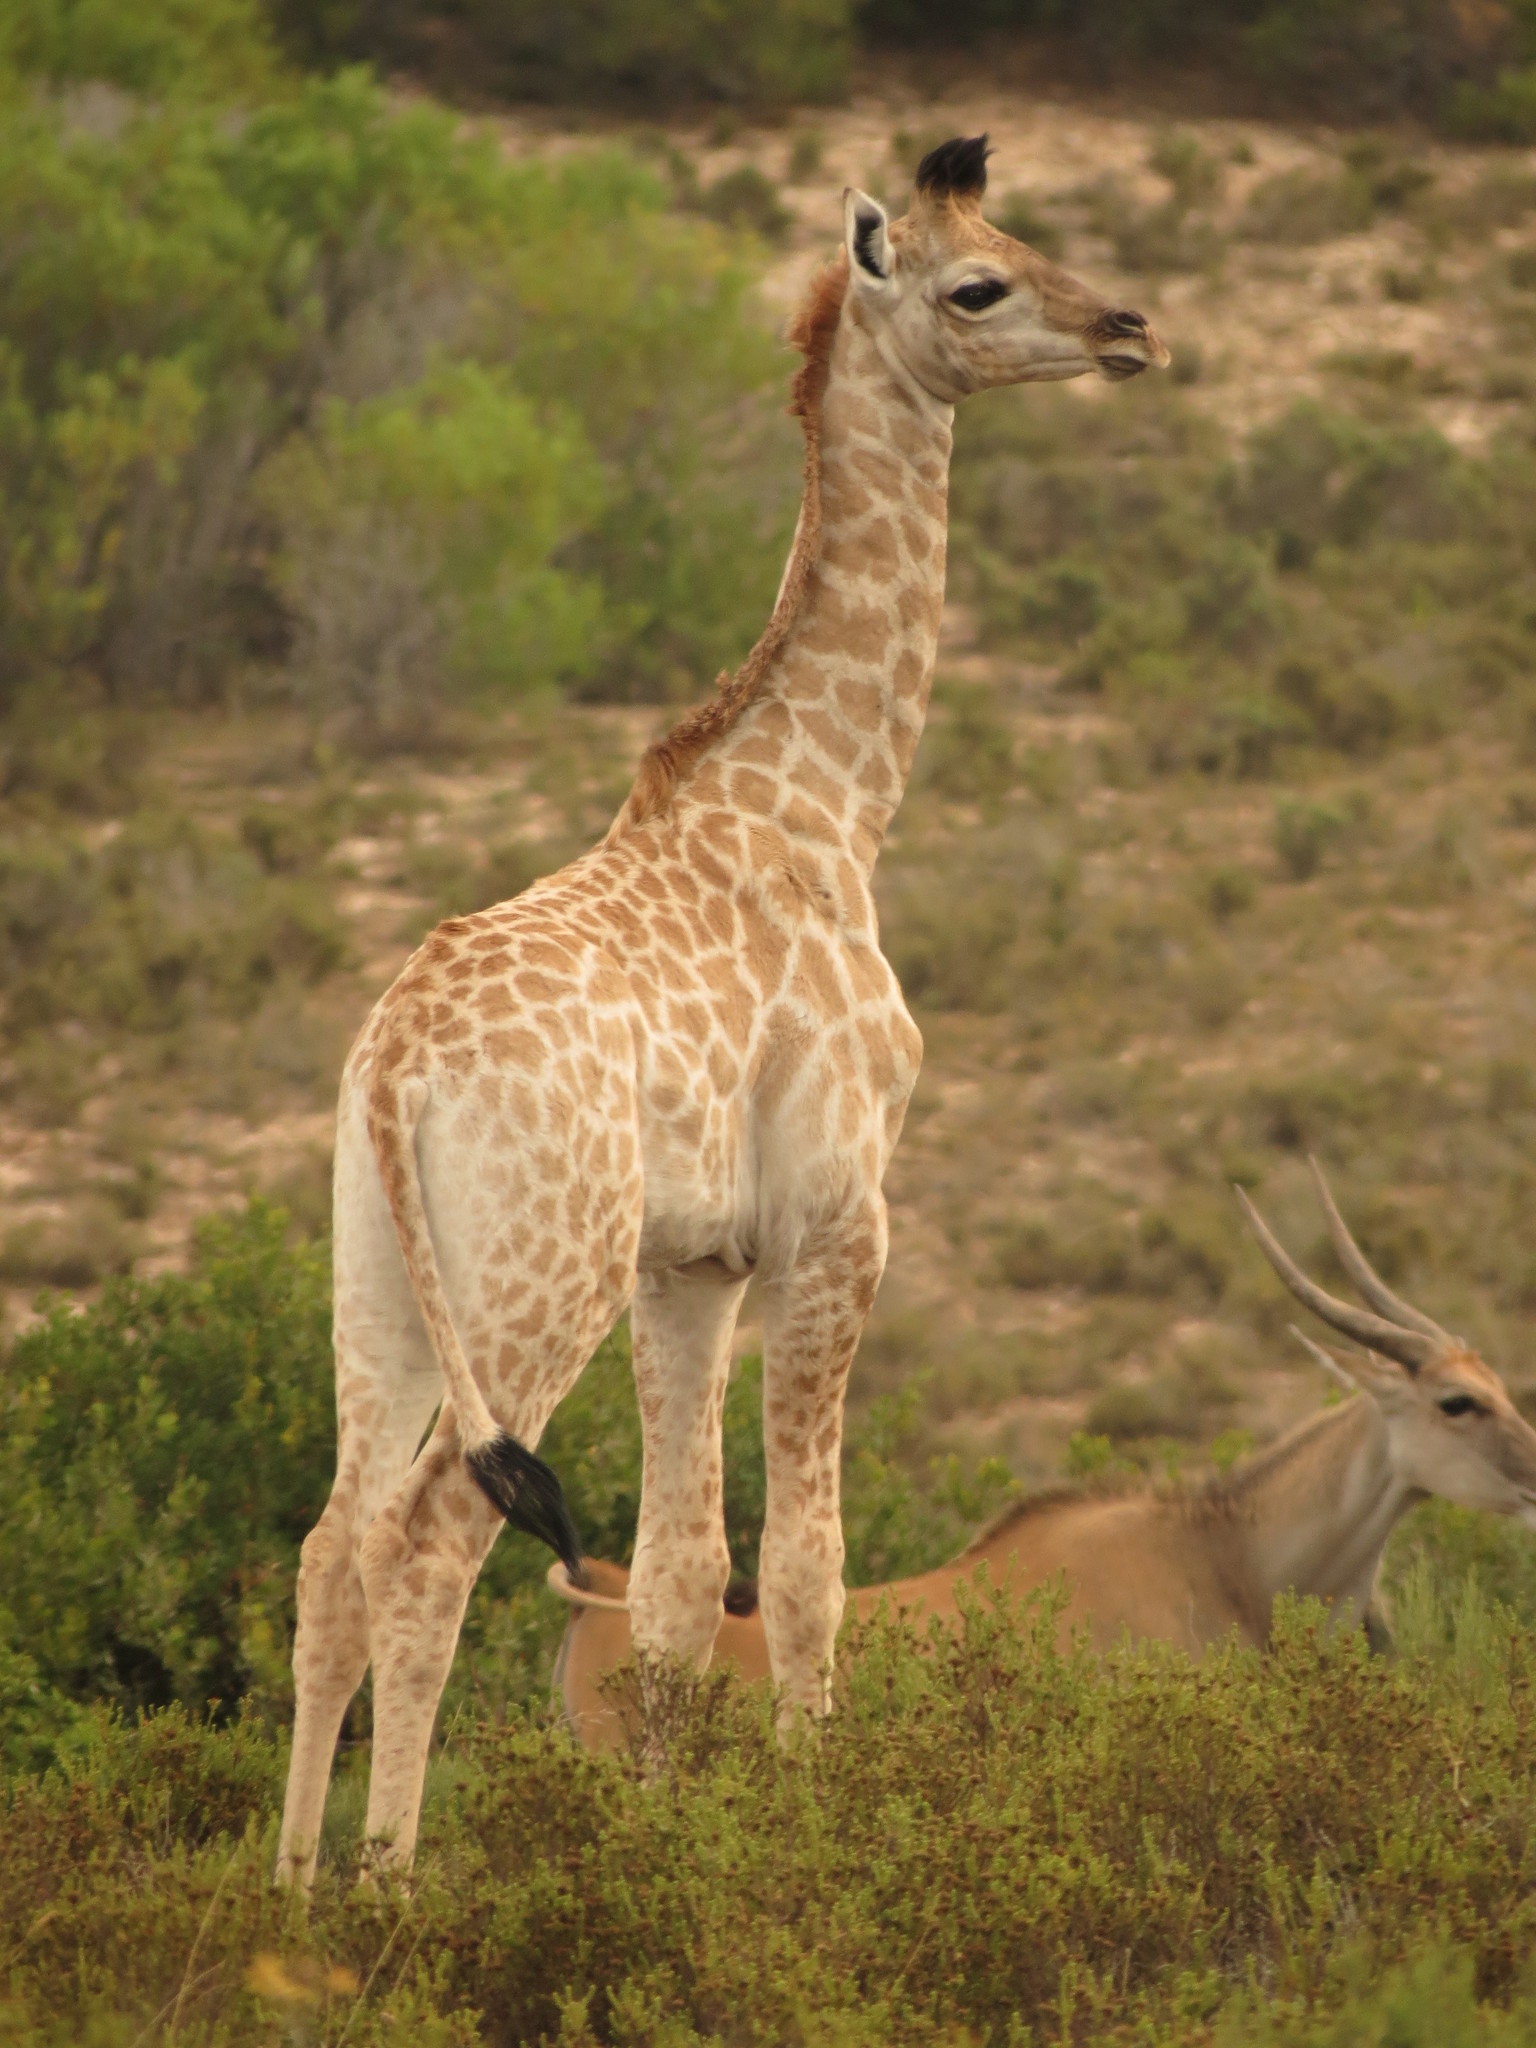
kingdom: Animalia
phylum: Chordata
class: Mammalia
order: Artiodactyla
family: Giraffidae
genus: Giraffa
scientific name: Giraffa giraffa
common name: Southern giraffe
